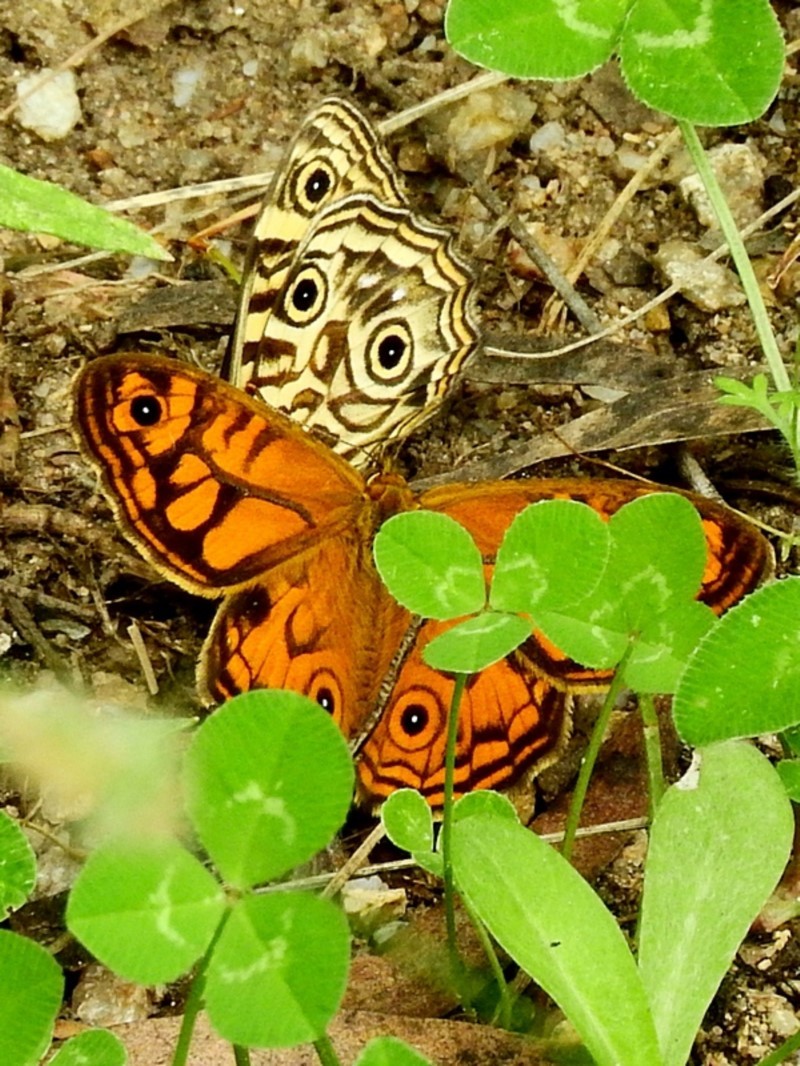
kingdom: Animalia
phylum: Arthropoda
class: Insecta
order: Lepidoptera
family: Nymphalidae
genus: Geitoneura
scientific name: Geitoneura acantha
